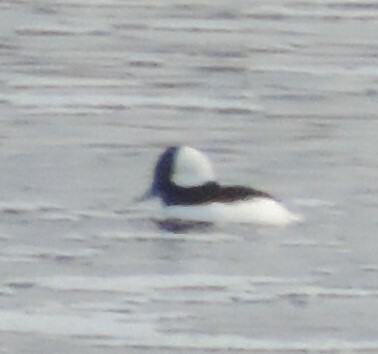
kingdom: Animalia
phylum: Chordata
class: Aves
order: Anseriformes
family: Anatidae
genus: Bucephala
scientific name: Bucephala albeola
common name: Bufflehead
